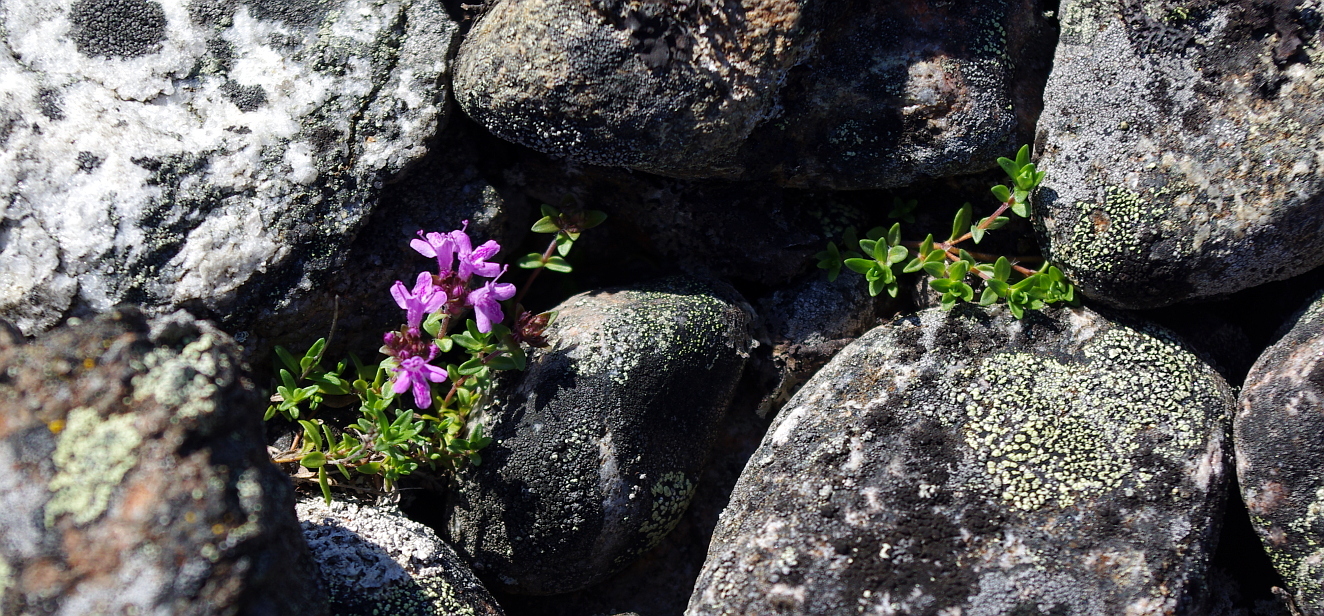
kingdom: Plantae
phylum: Tracheophyta
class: Magnoliopsida
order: Lamiales
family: Lamiaceae
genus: Thymus
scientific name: Thymus serpyllum
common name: Breckland thyme
